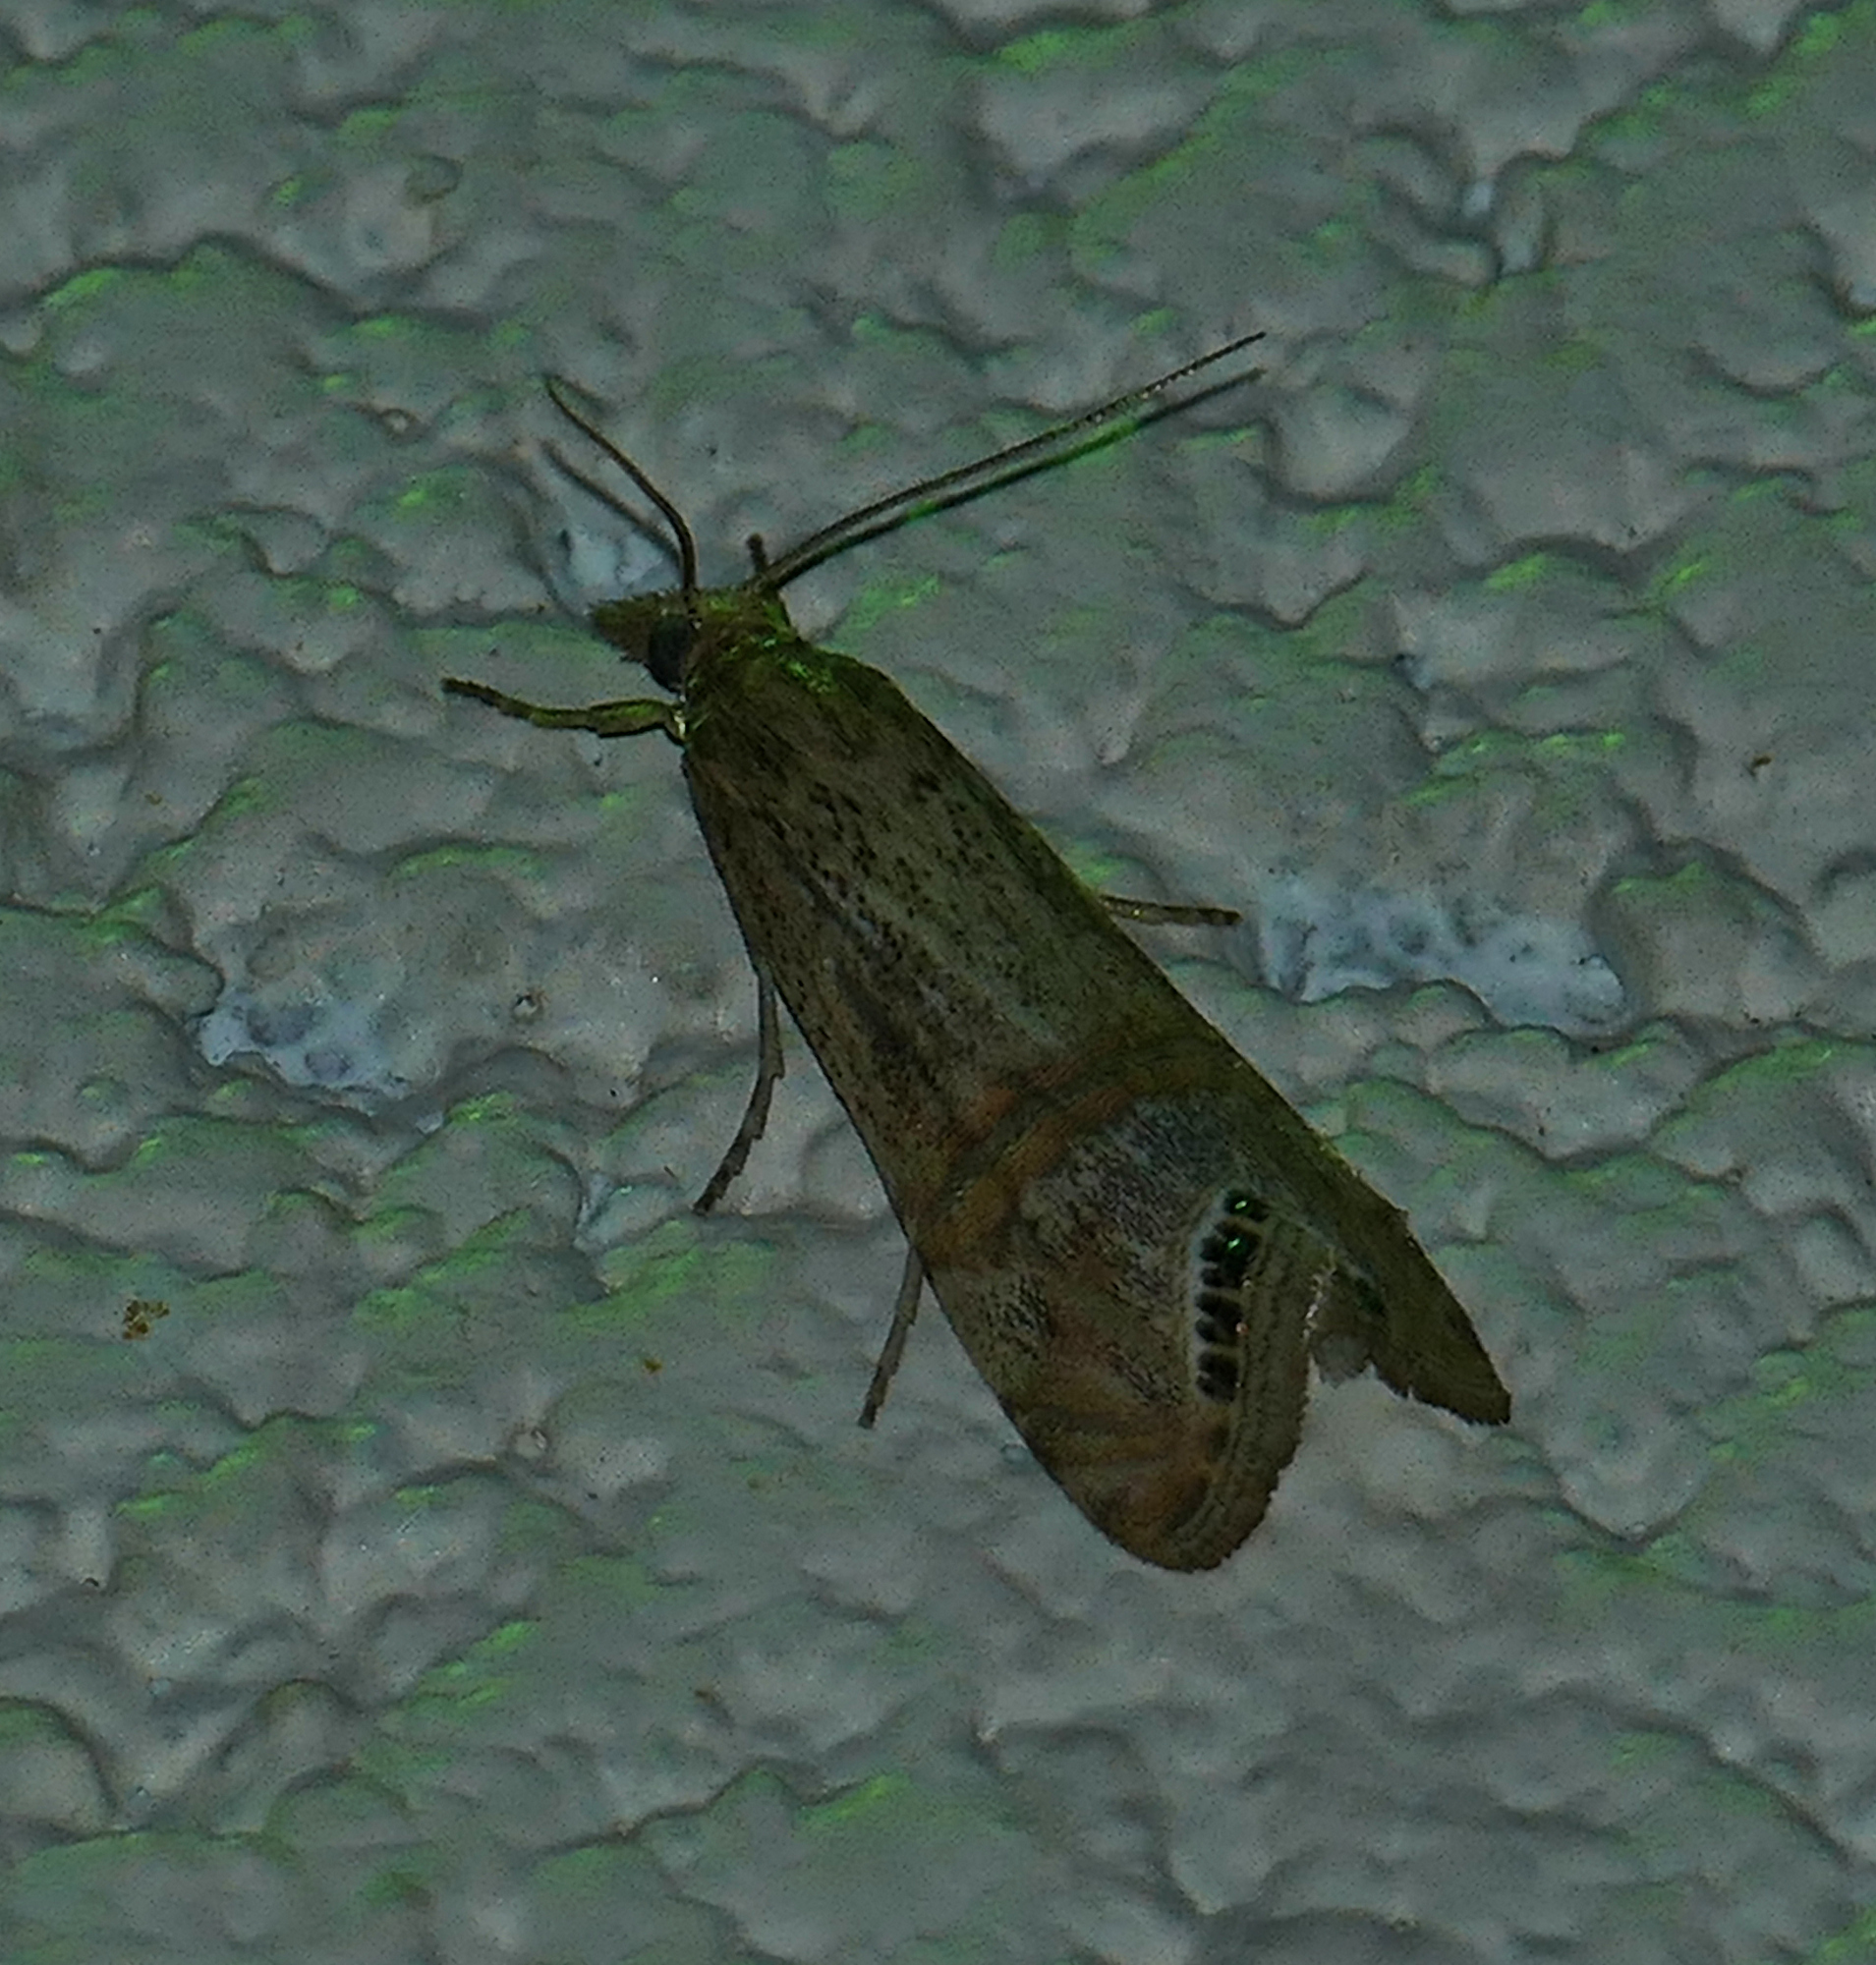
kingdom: Animalia
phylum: Arthropoda
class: Insecta
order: Lepidoptera
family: Crambidae
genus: Euchromius
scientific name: Euchromius ocellea
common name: Necklace veneer moth
